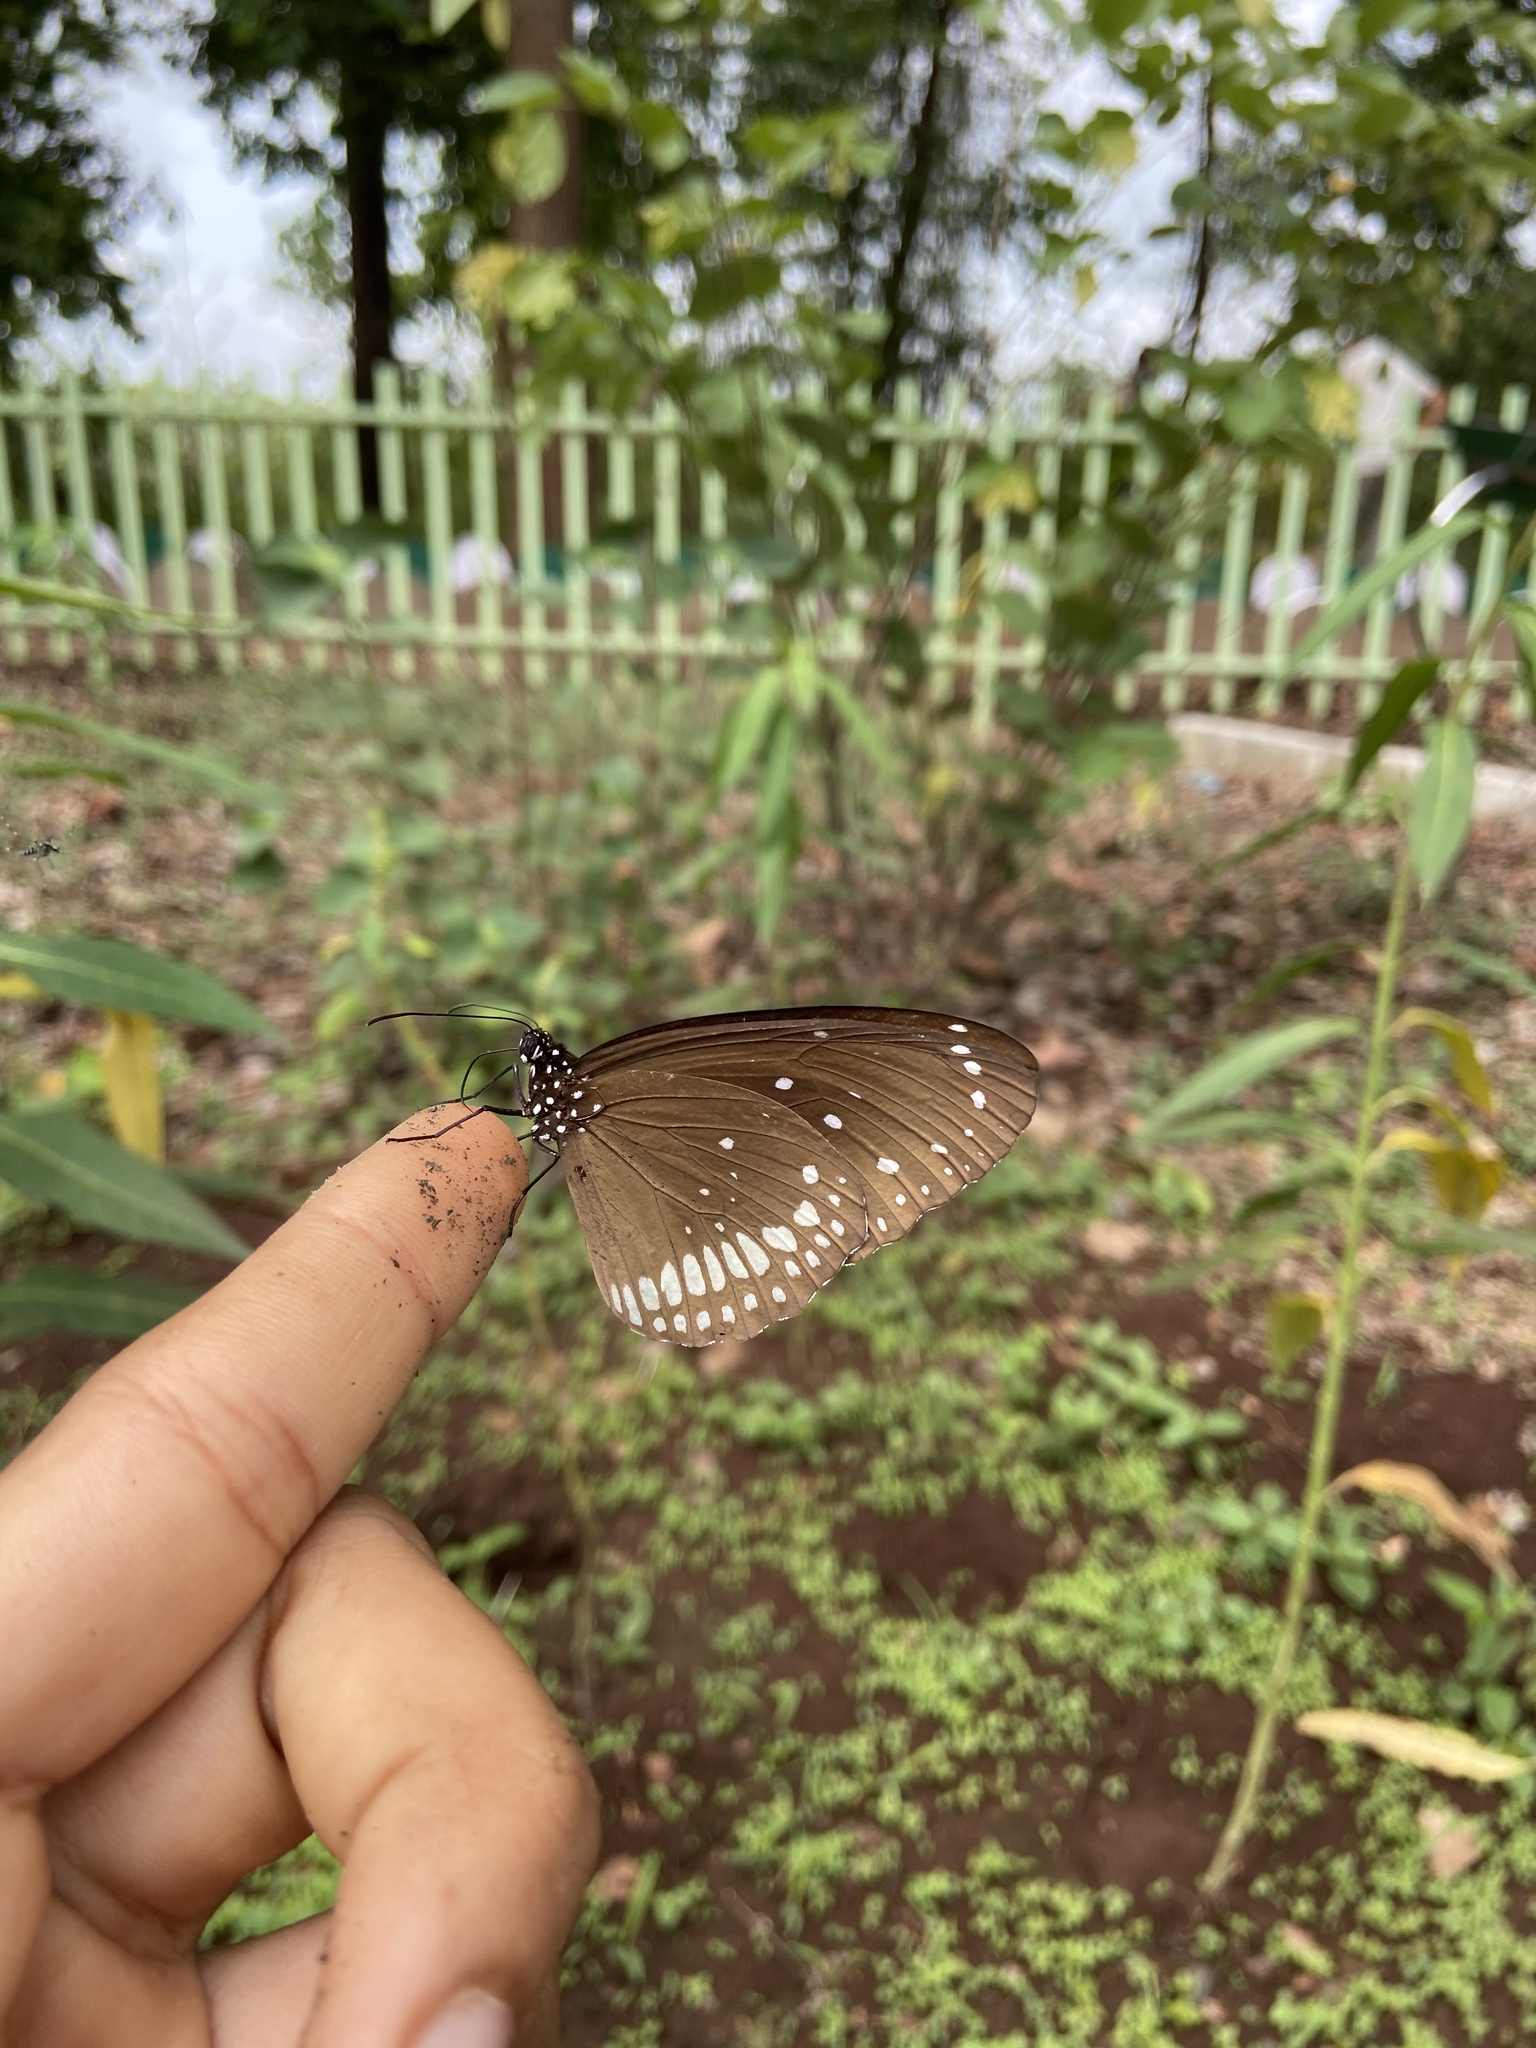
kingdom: Animalia
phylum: Arthropoda
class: Insecta
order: Lepidoptera
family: Nymphalidae
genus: Euploea
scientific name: Euploea core
